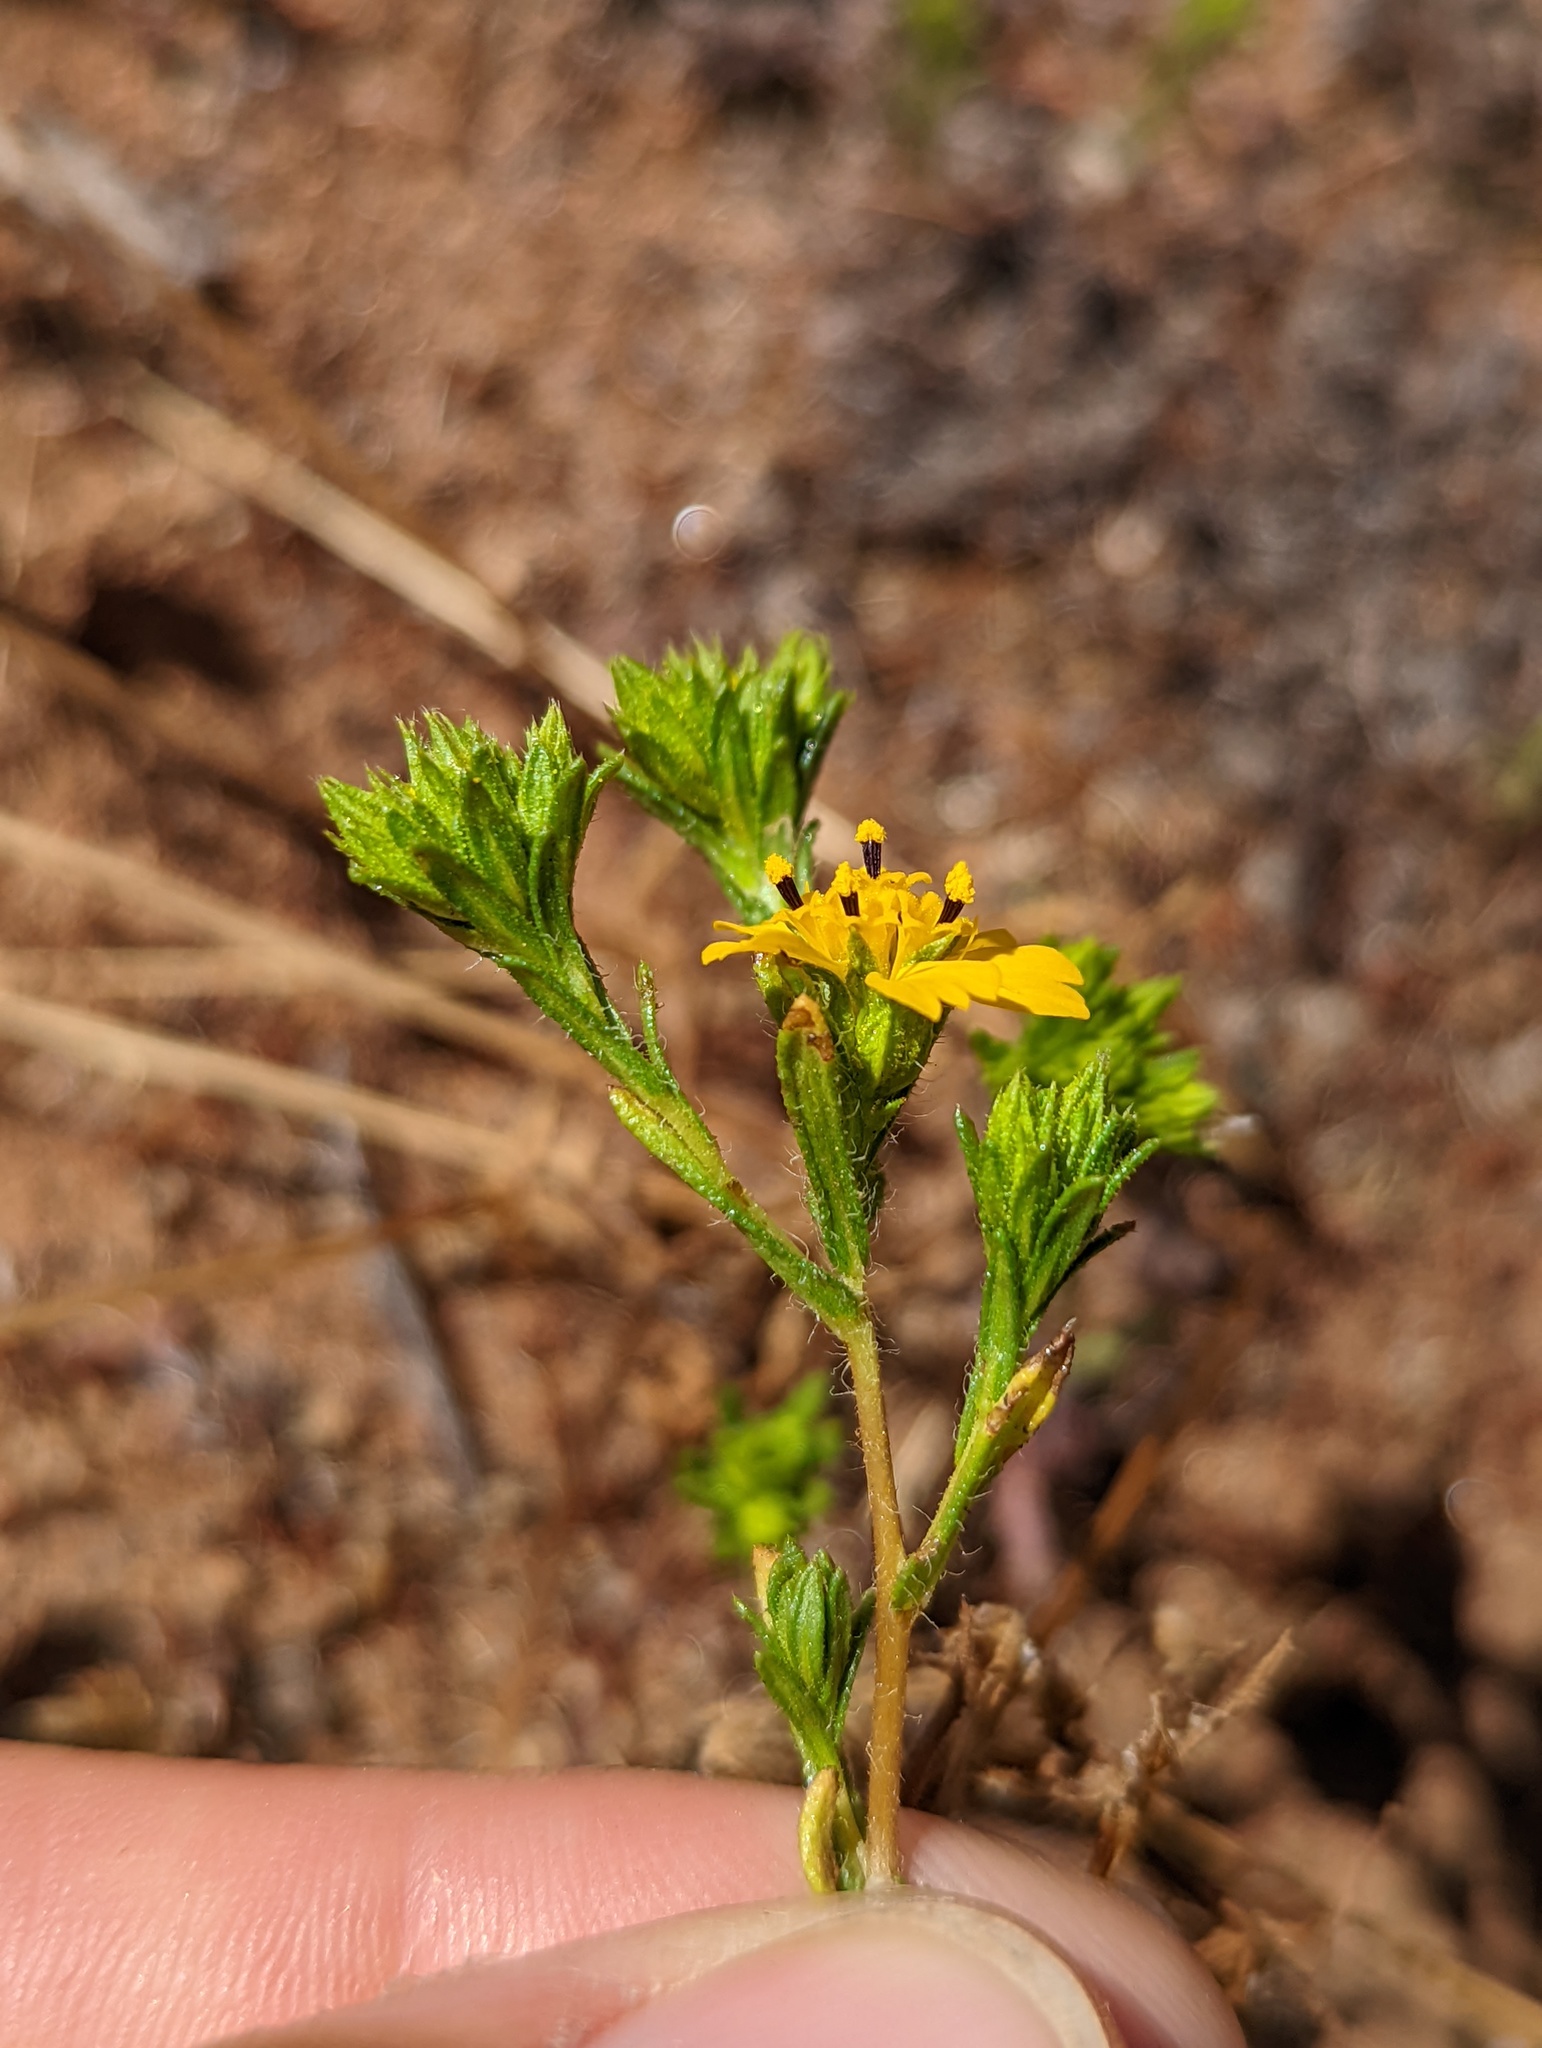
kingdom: Plantae
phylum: Tracheophyta
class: Magnoliopsida
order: Asterales
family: Asteraceae
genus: Deinandra
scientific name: Deinandra fasciculata
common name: Clustered tarweed
